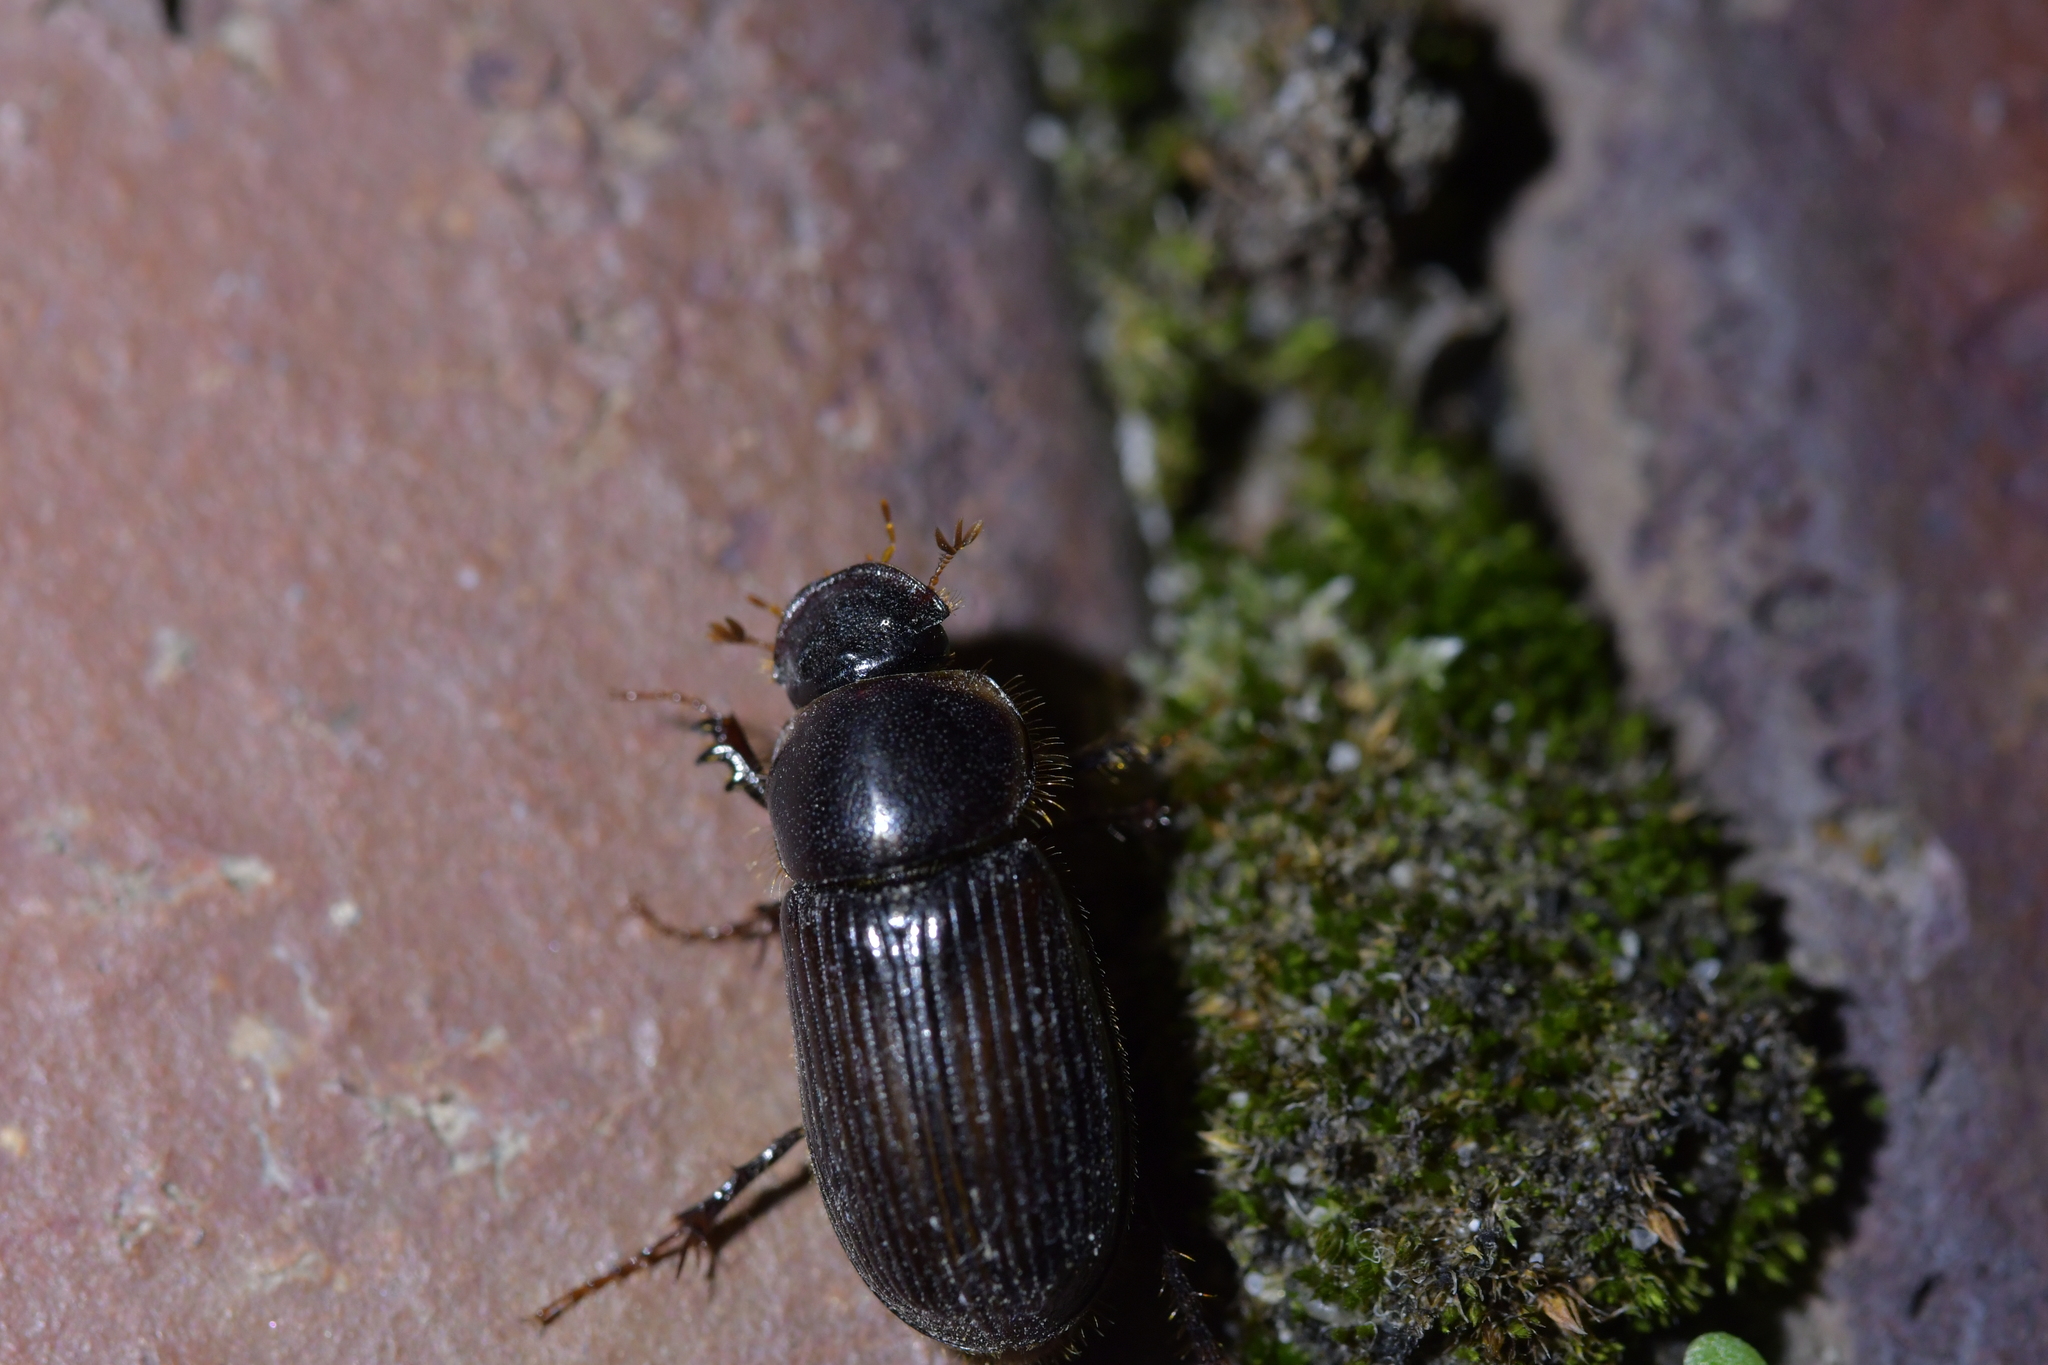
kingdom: Animalia
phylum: Arthropoda
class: Insecta
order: Coleoptera
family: Scarabaeidae
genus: Acrossidius
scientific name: Acrossidius tasmaniae
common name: Black-headed pasture cockchafer
